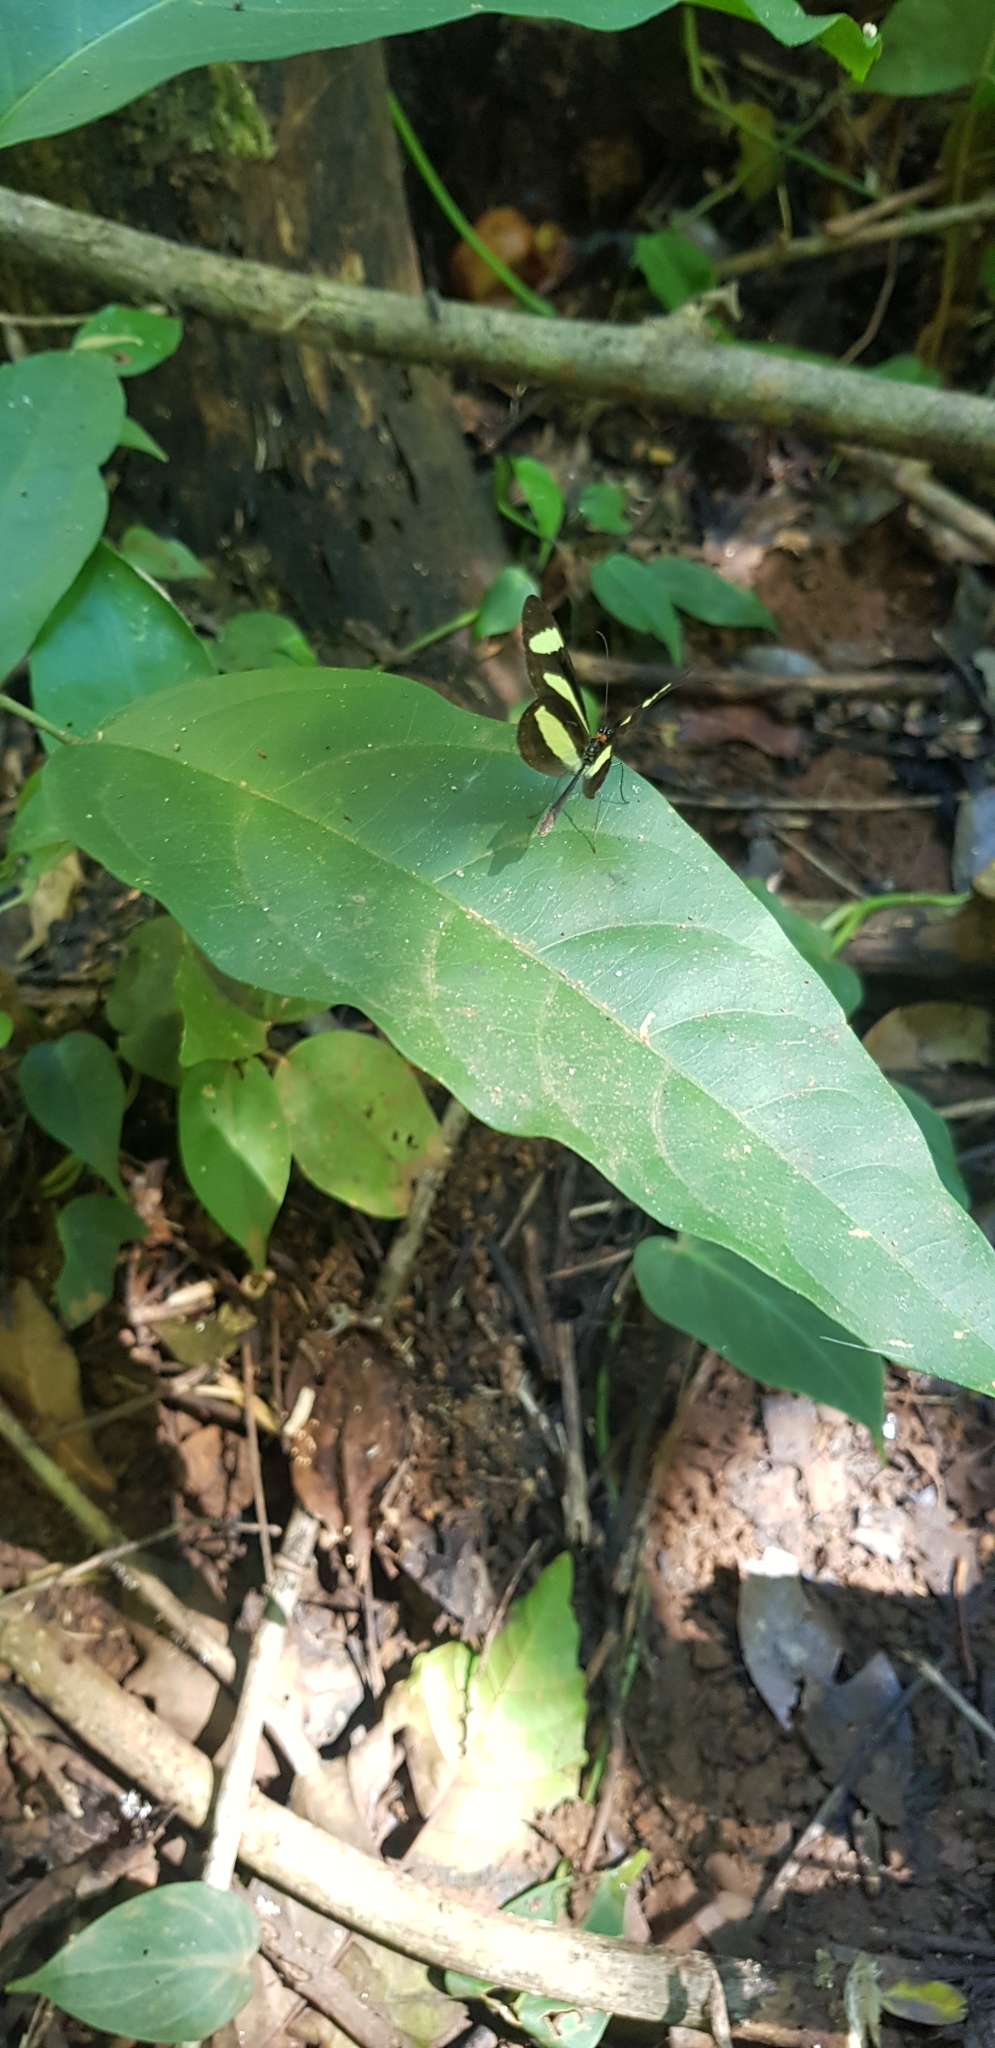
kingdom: Animalia
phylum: Arthropoda
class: Insecta
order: Lepidoptera
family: Nymphalidae
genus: Aeria
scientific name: Aeria eurimedia
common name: Banded tigerwing
